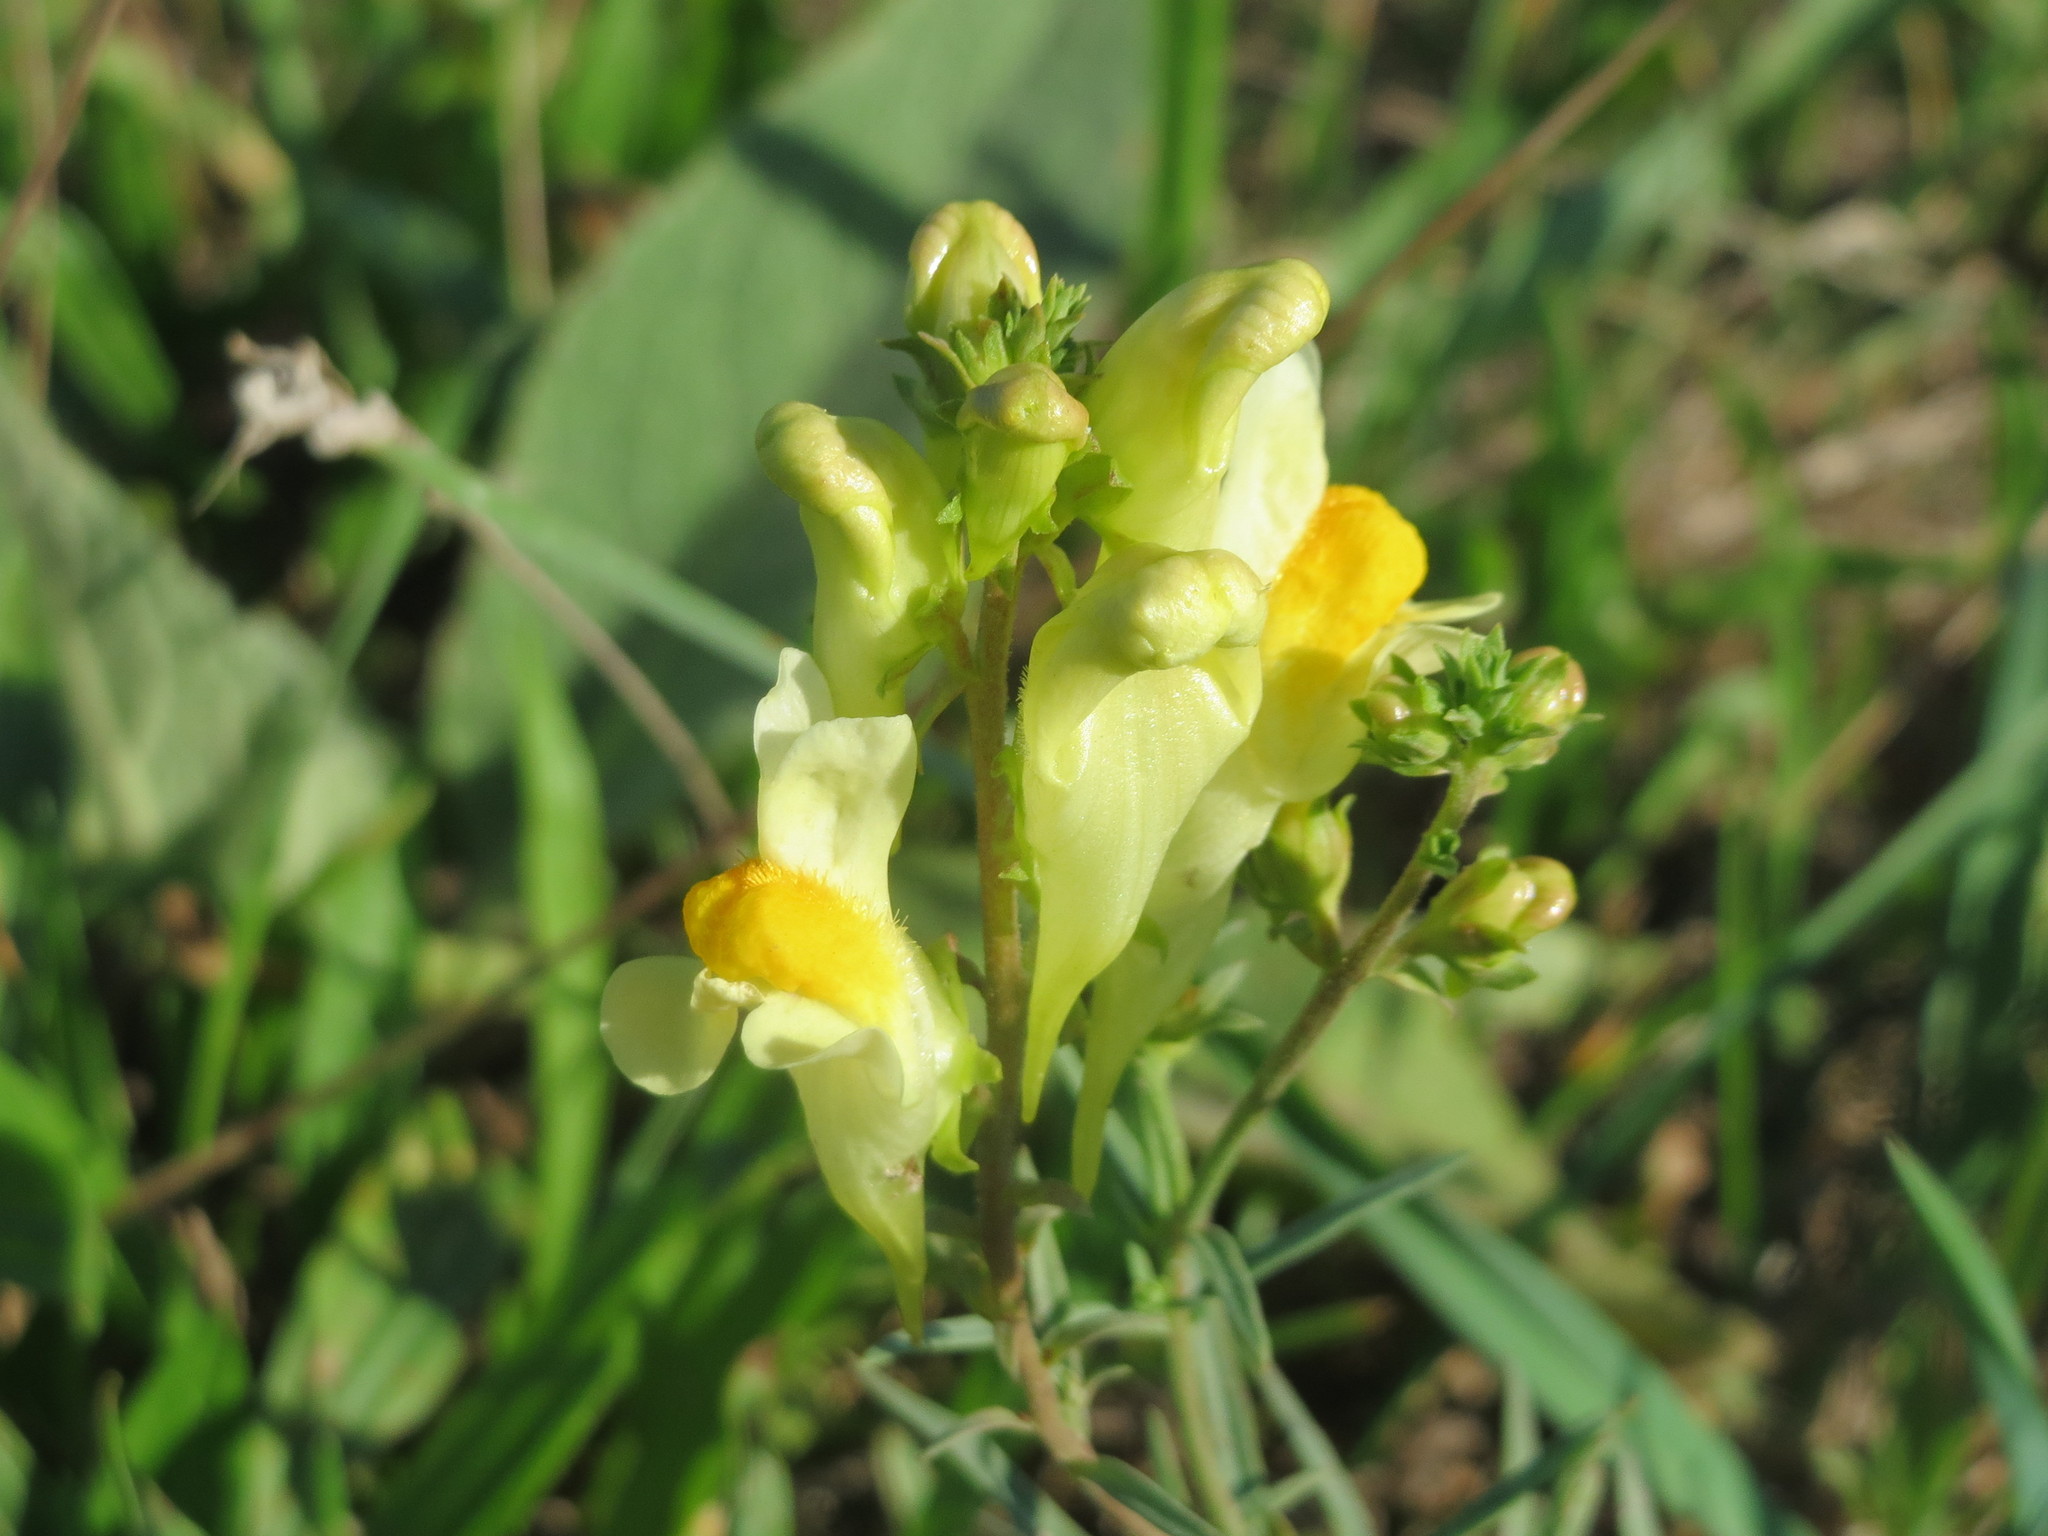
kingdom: Plantae
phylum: Tracheophyta
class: Magnoliopsida
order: Lamiales
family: Plantaginaceae
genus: Linaria
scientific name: Linaria vulgaris
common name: Butter and eggs
